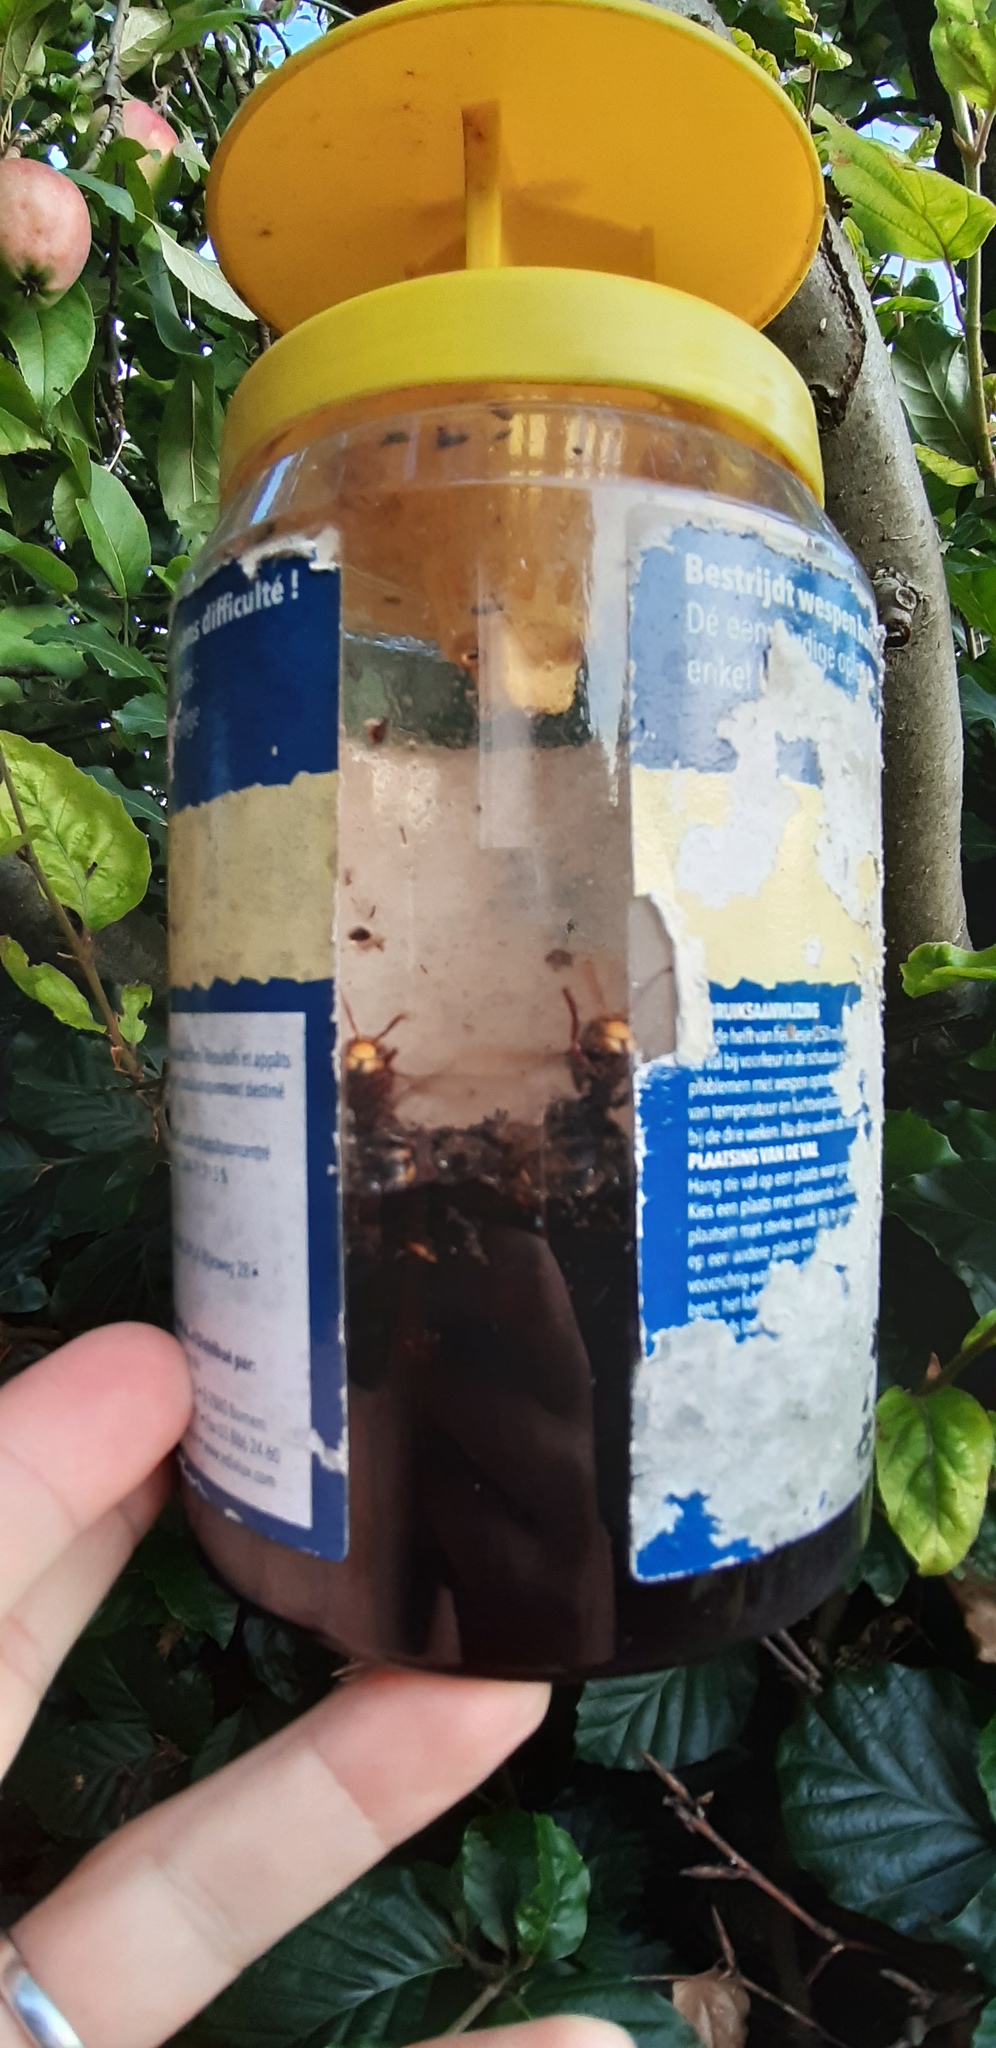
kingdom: Animalia
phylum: Arthropoda
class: Insecta
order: Hymenoptera
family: Vespidae
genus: Vespa
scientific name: Vespa crabro
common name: Hornet
